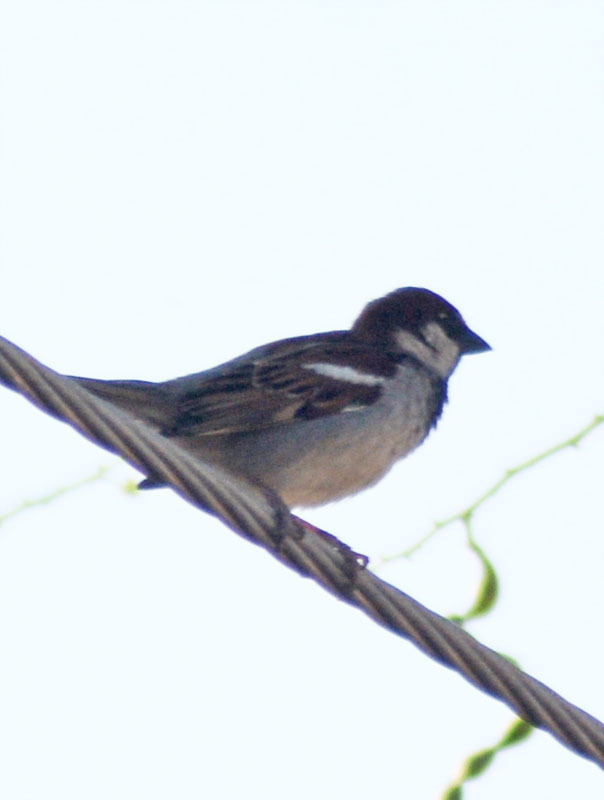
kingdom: Animalia
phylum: Chordata
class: Aves
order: Passeriformes
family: Passeridae
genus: Passer
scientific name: Passer domesticus
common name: House sparrow
